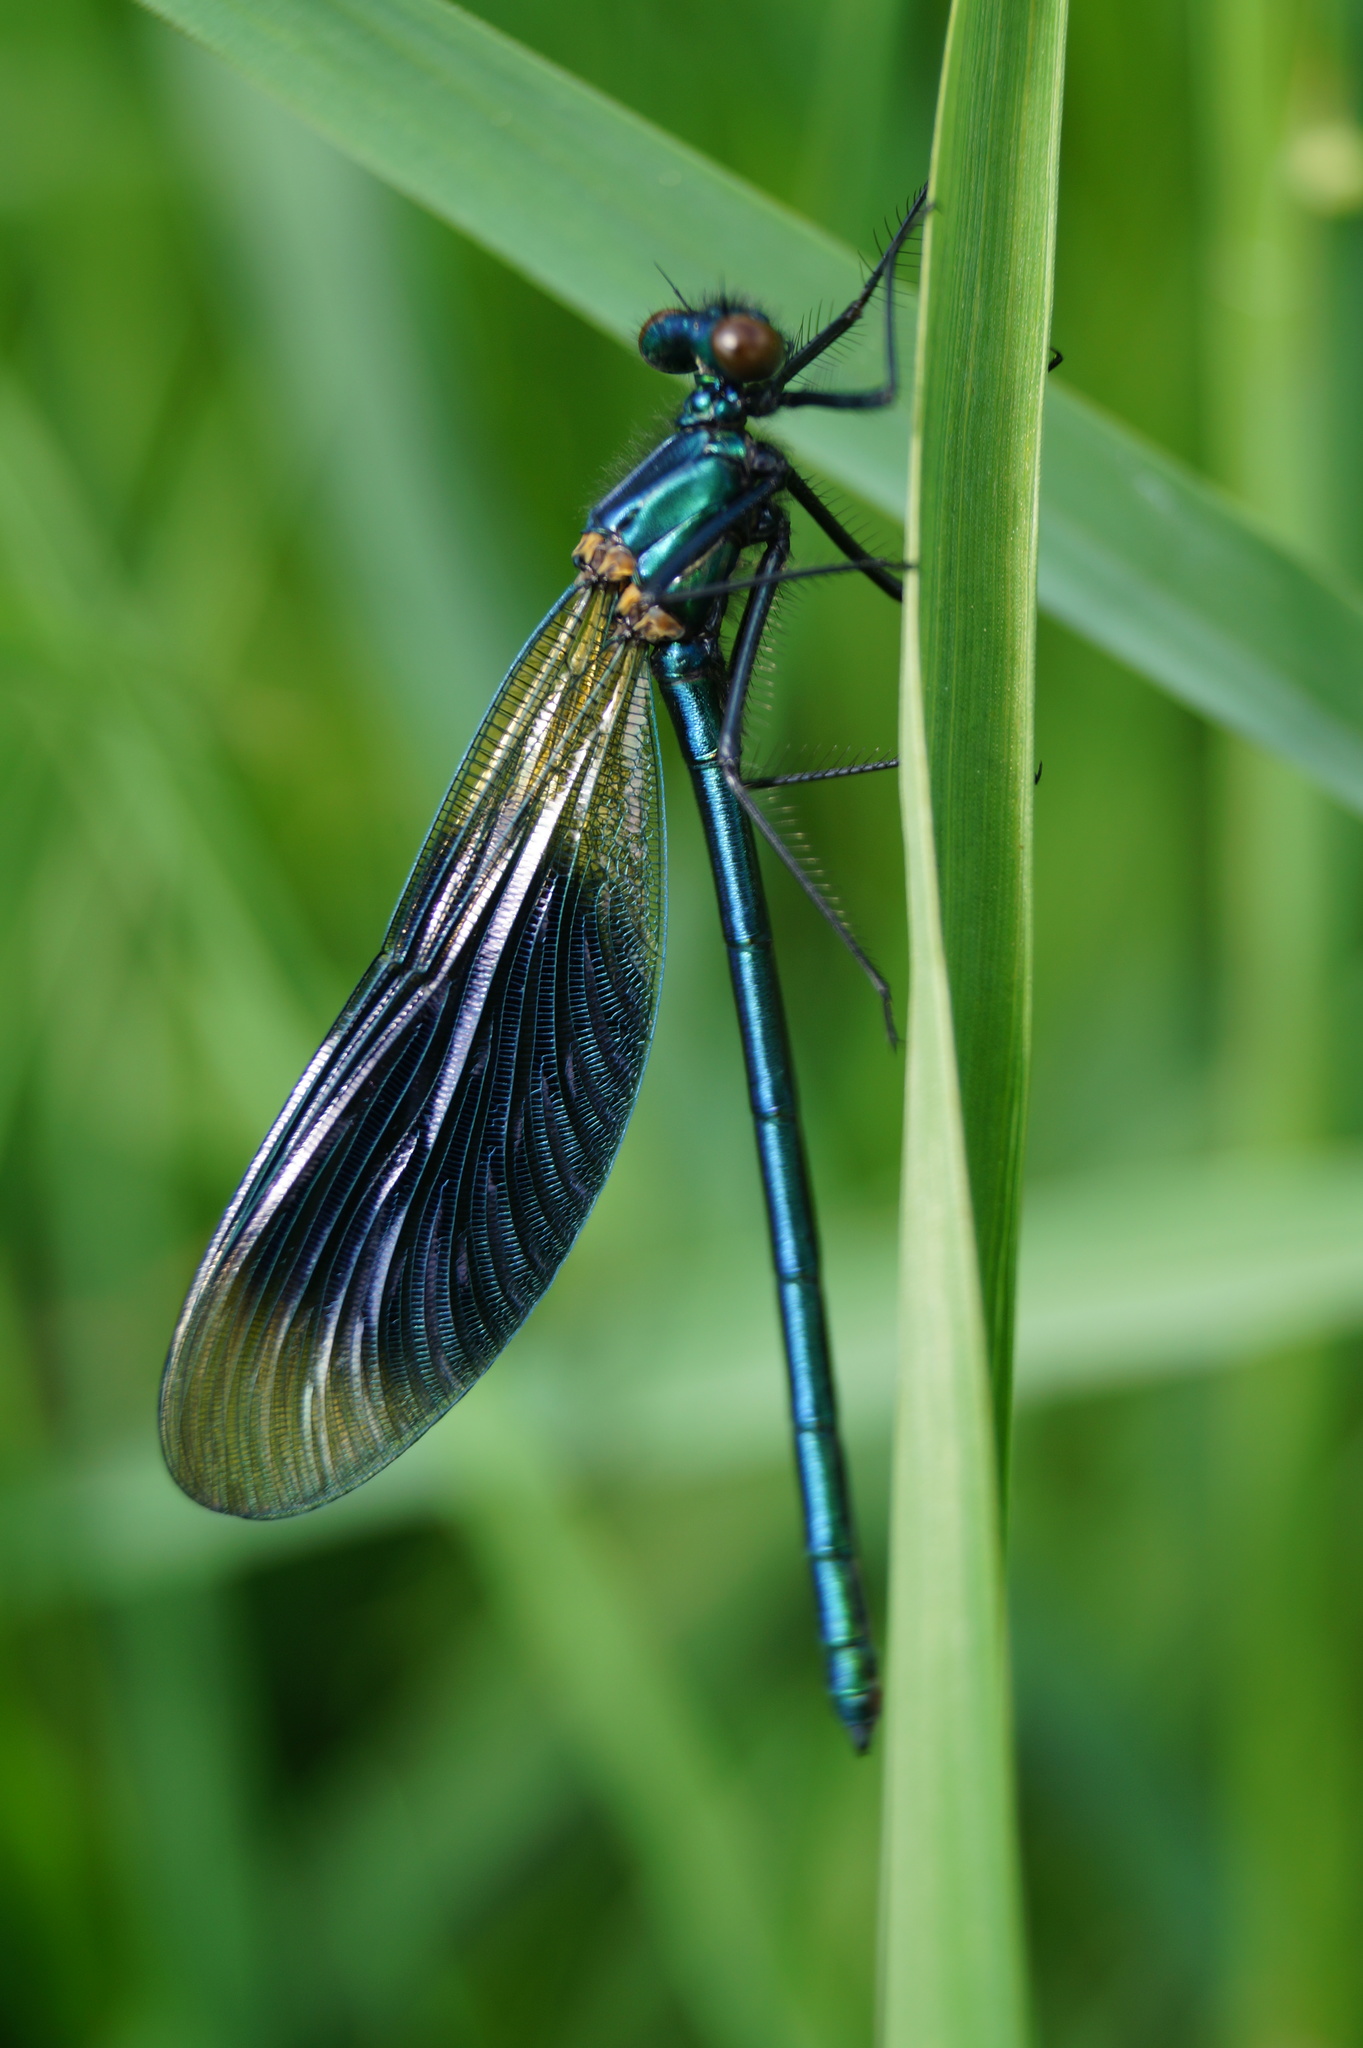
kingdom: Animalia
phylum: Arthropoda
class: Insecta
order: Odonata
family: Calopterygidae
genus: Calopteryx
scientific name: Calopteryx splendens
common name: Banded demoiselle
